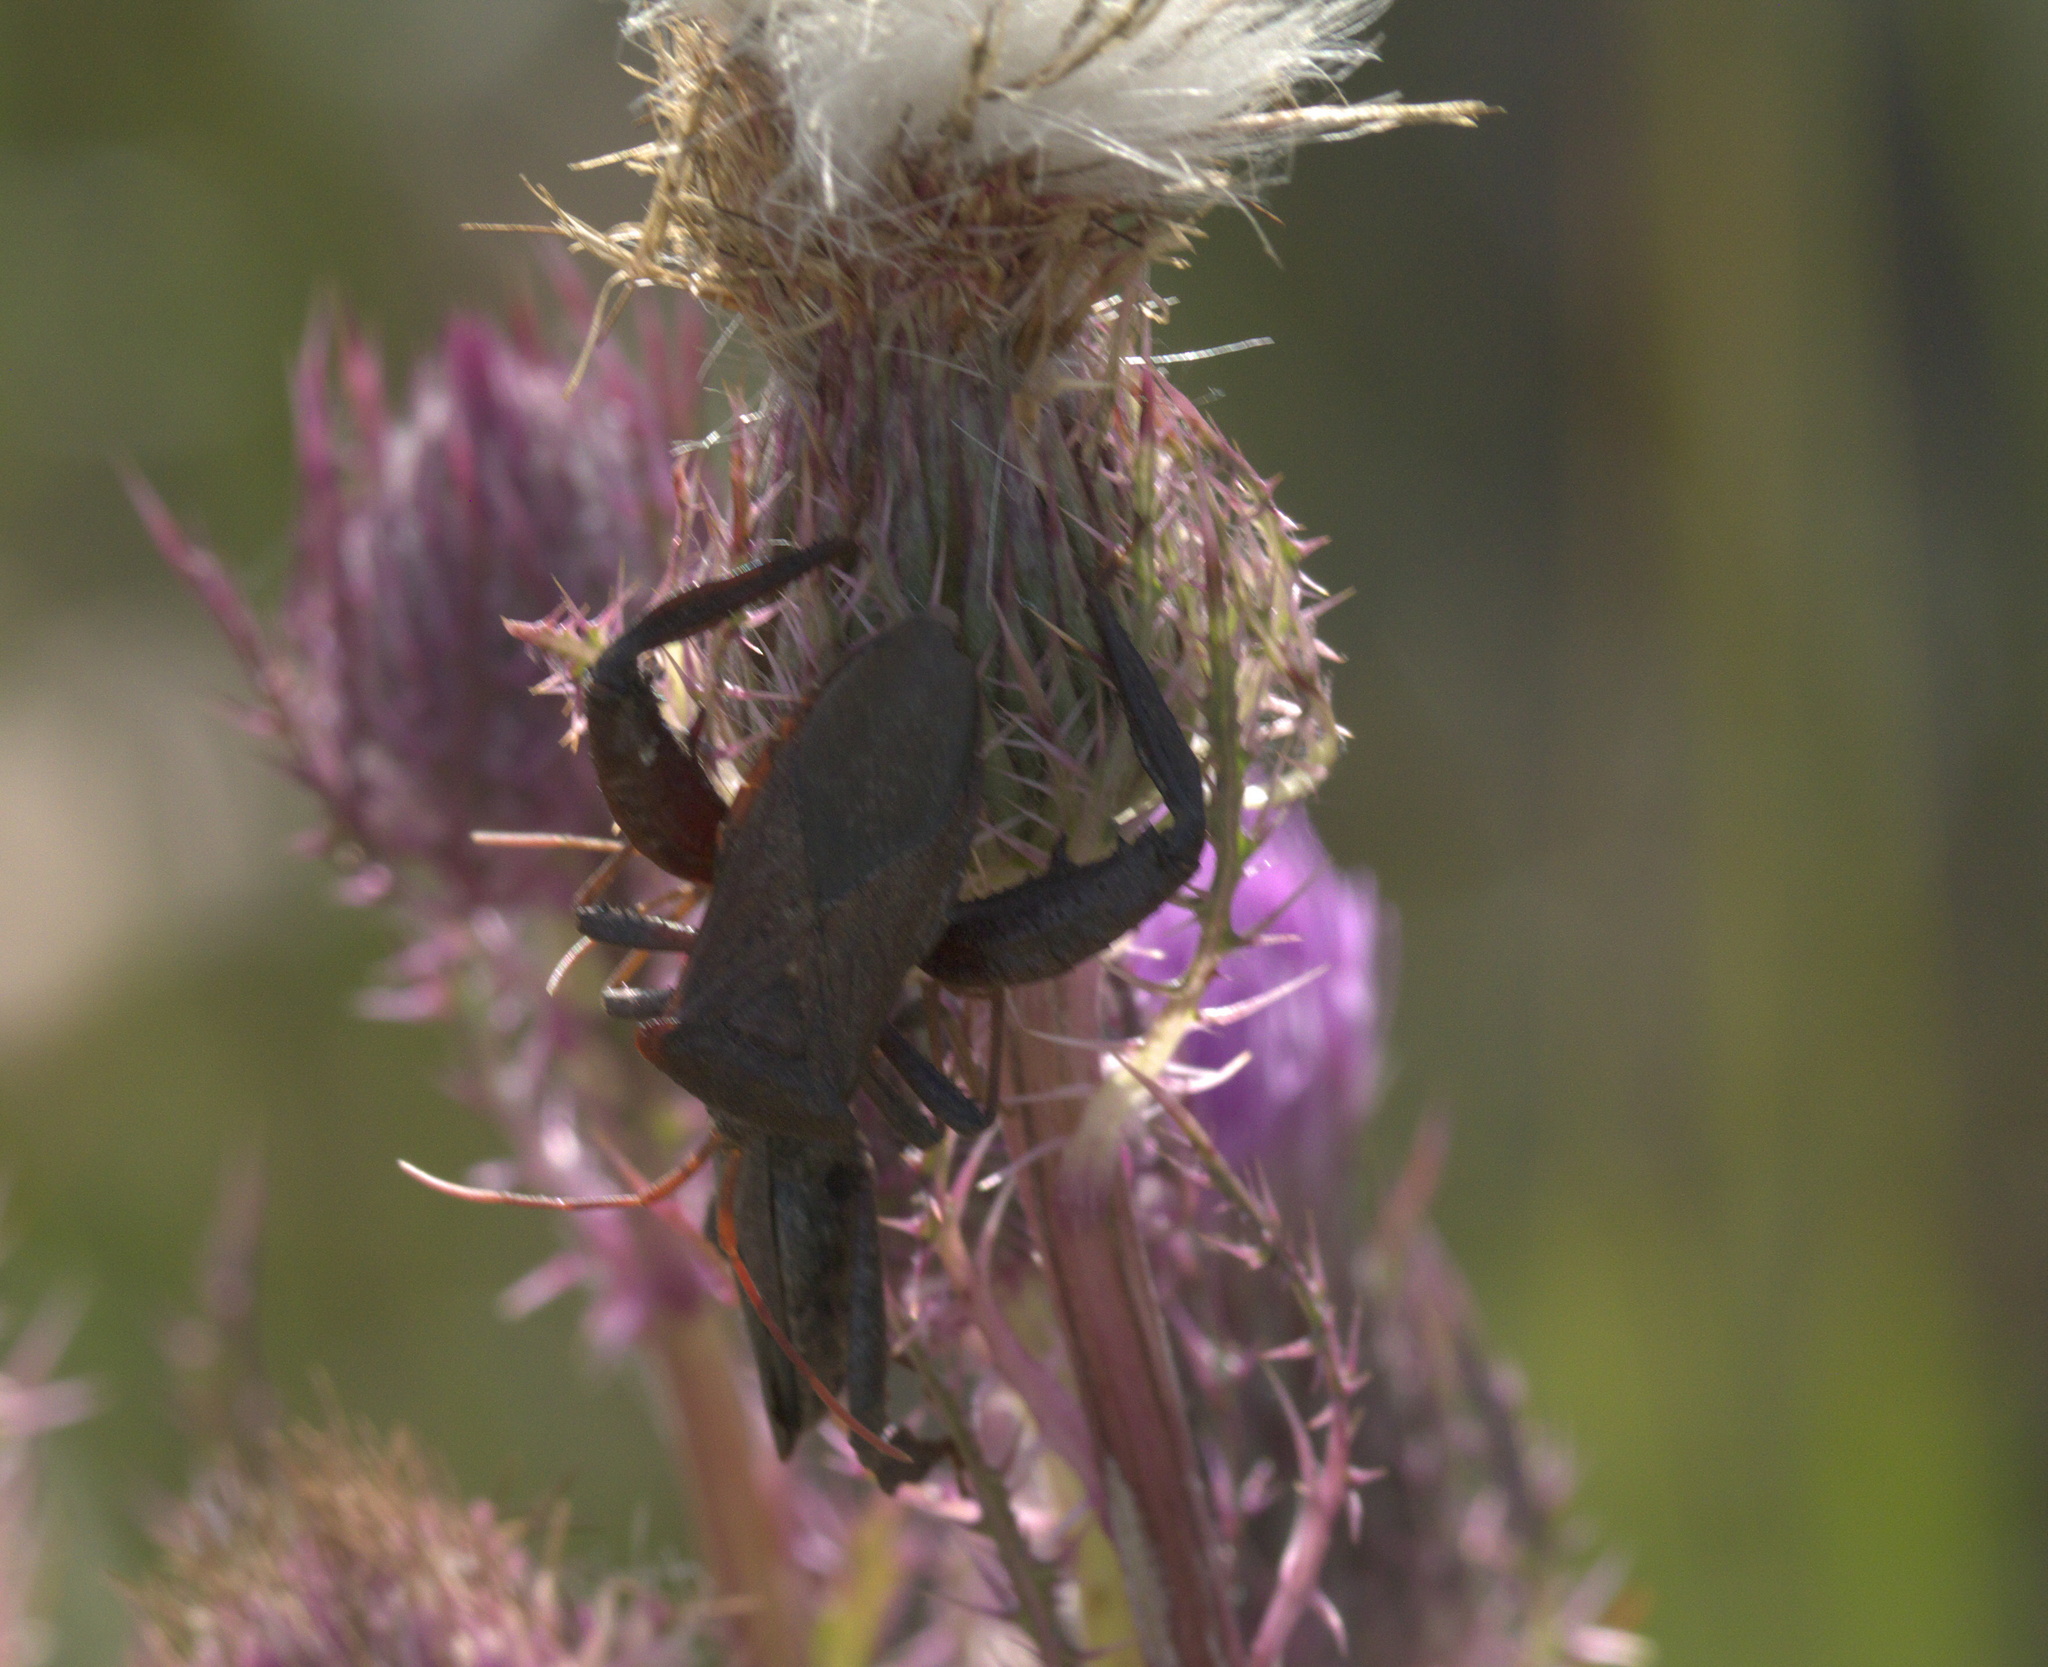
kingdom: Animalia
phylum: Arthropoda
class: Insecta
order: Hemiptera
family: Coreidae
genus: Acanthocephala
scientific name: Acanthocephala femorata
